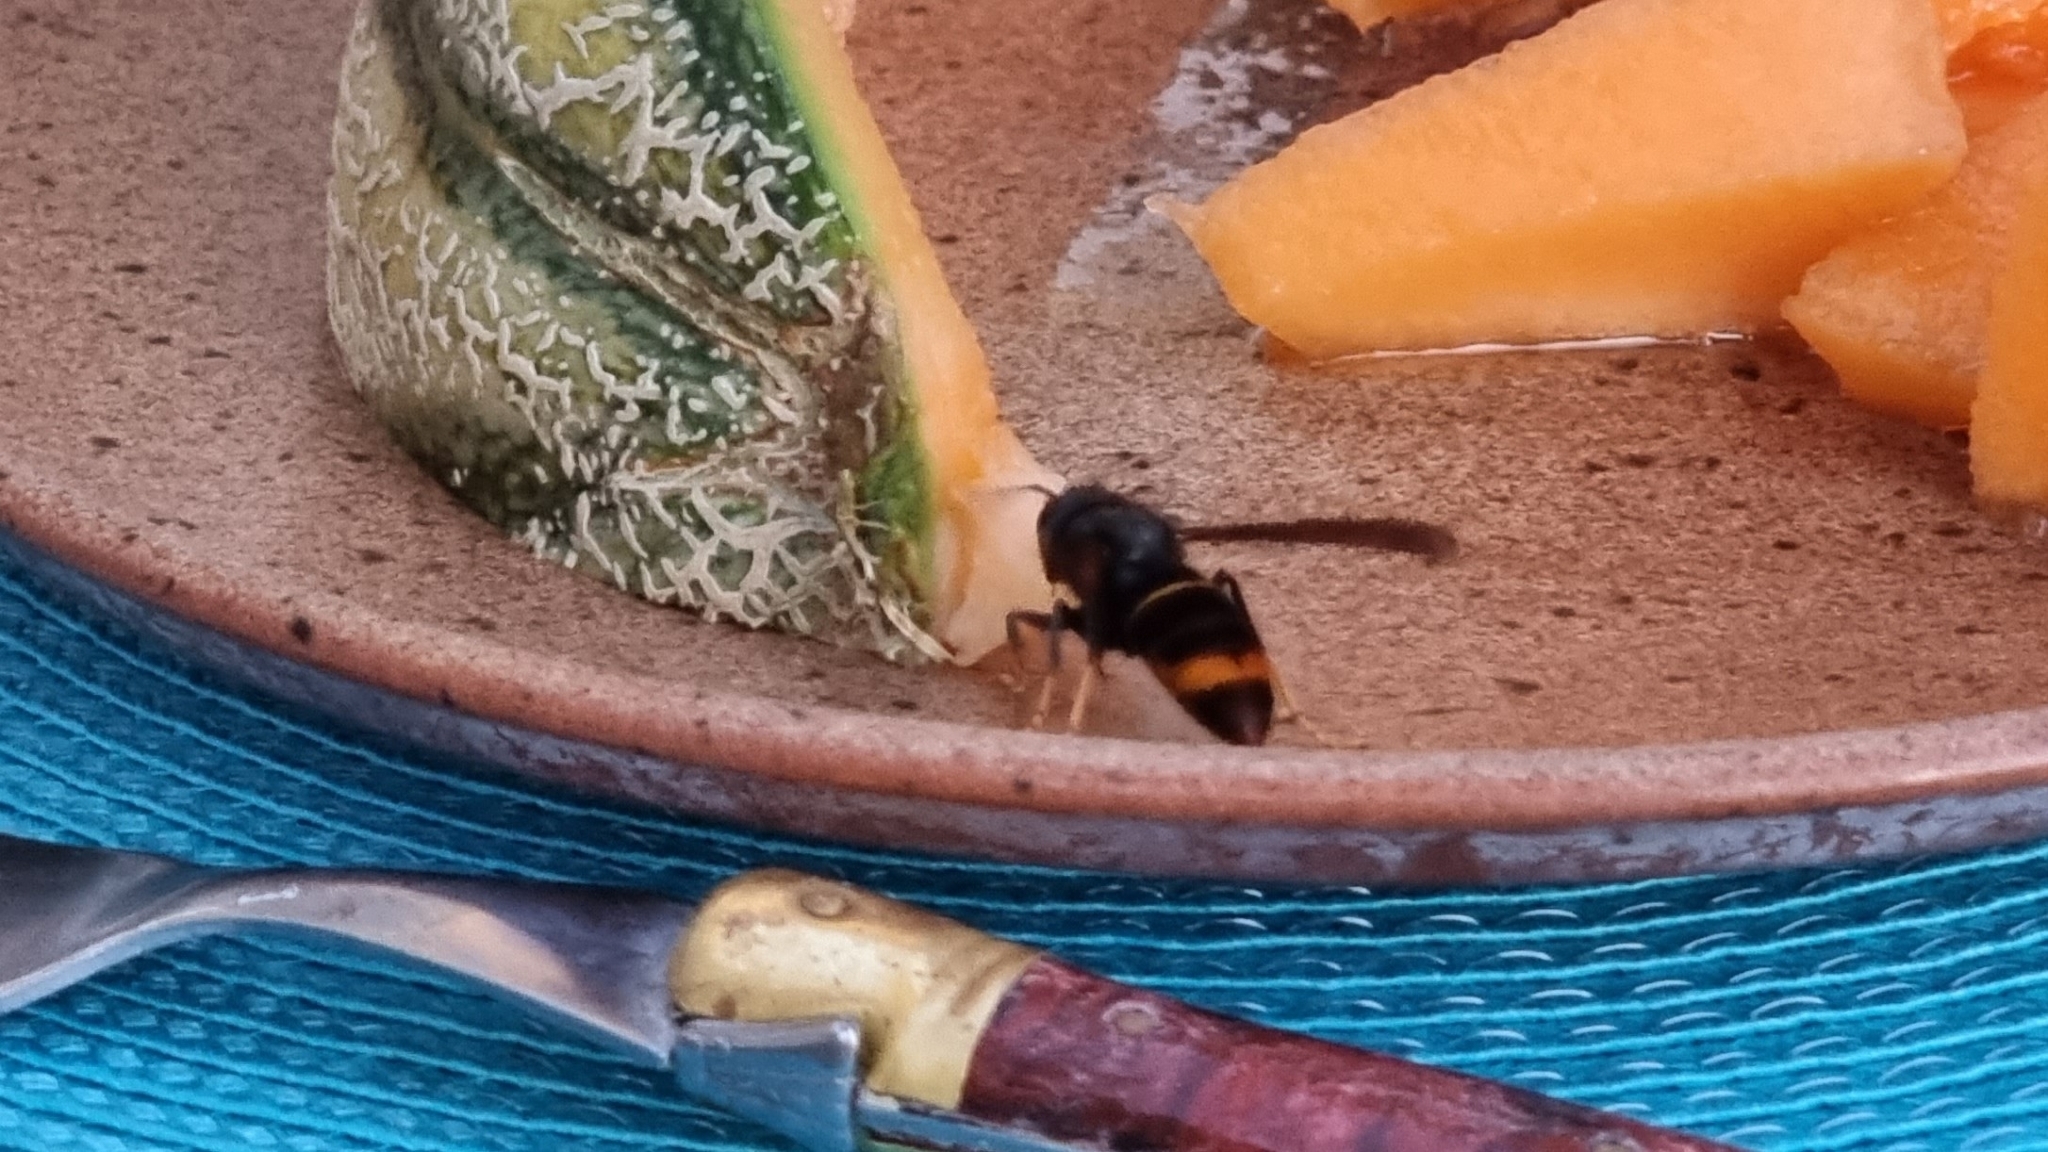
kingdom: Animalia
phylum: Arthropoda
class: Insecta
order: Hymenoptera
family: Vespidae
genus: Vespa
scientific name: Vespa velutina
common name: Asian hornet
